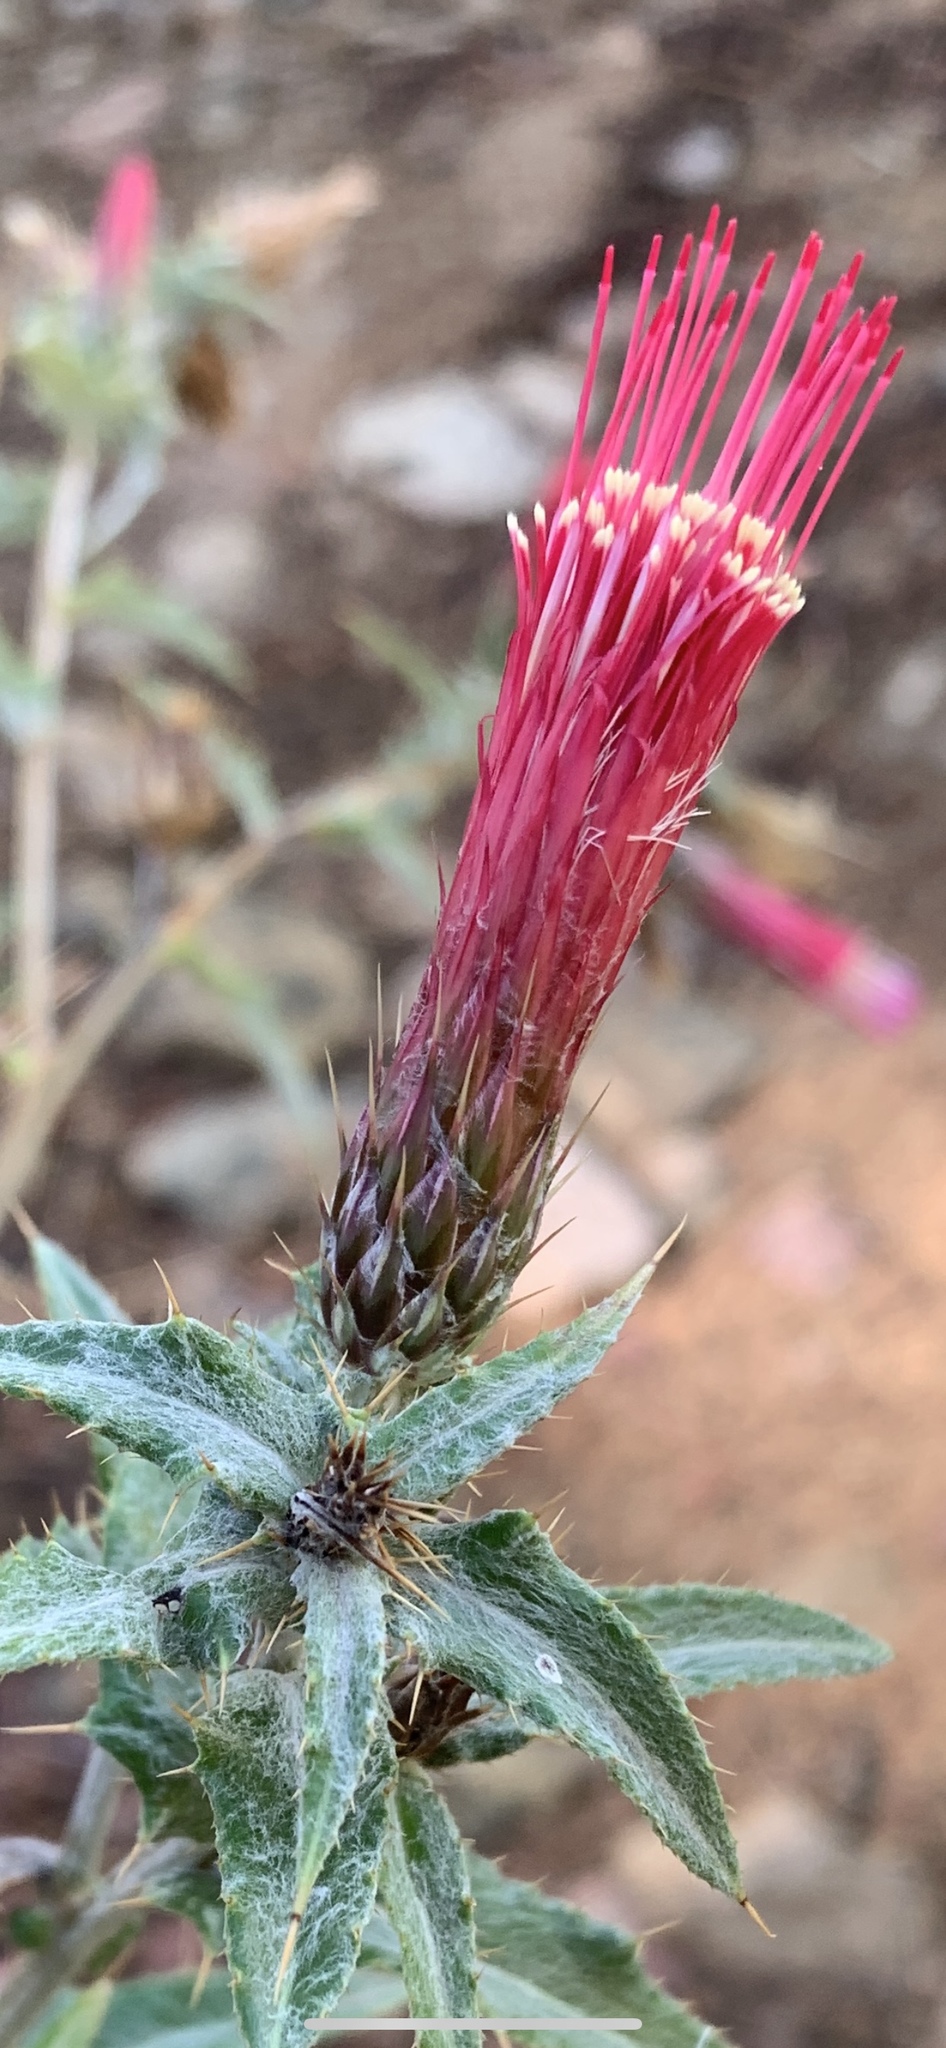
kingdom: Plantae
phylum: Tracheophyta
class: Magnoliopsida
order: Asterales
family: Asteraceae
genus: Cirsium
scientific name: Cirsium arizonicum
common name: Arizona thistle
